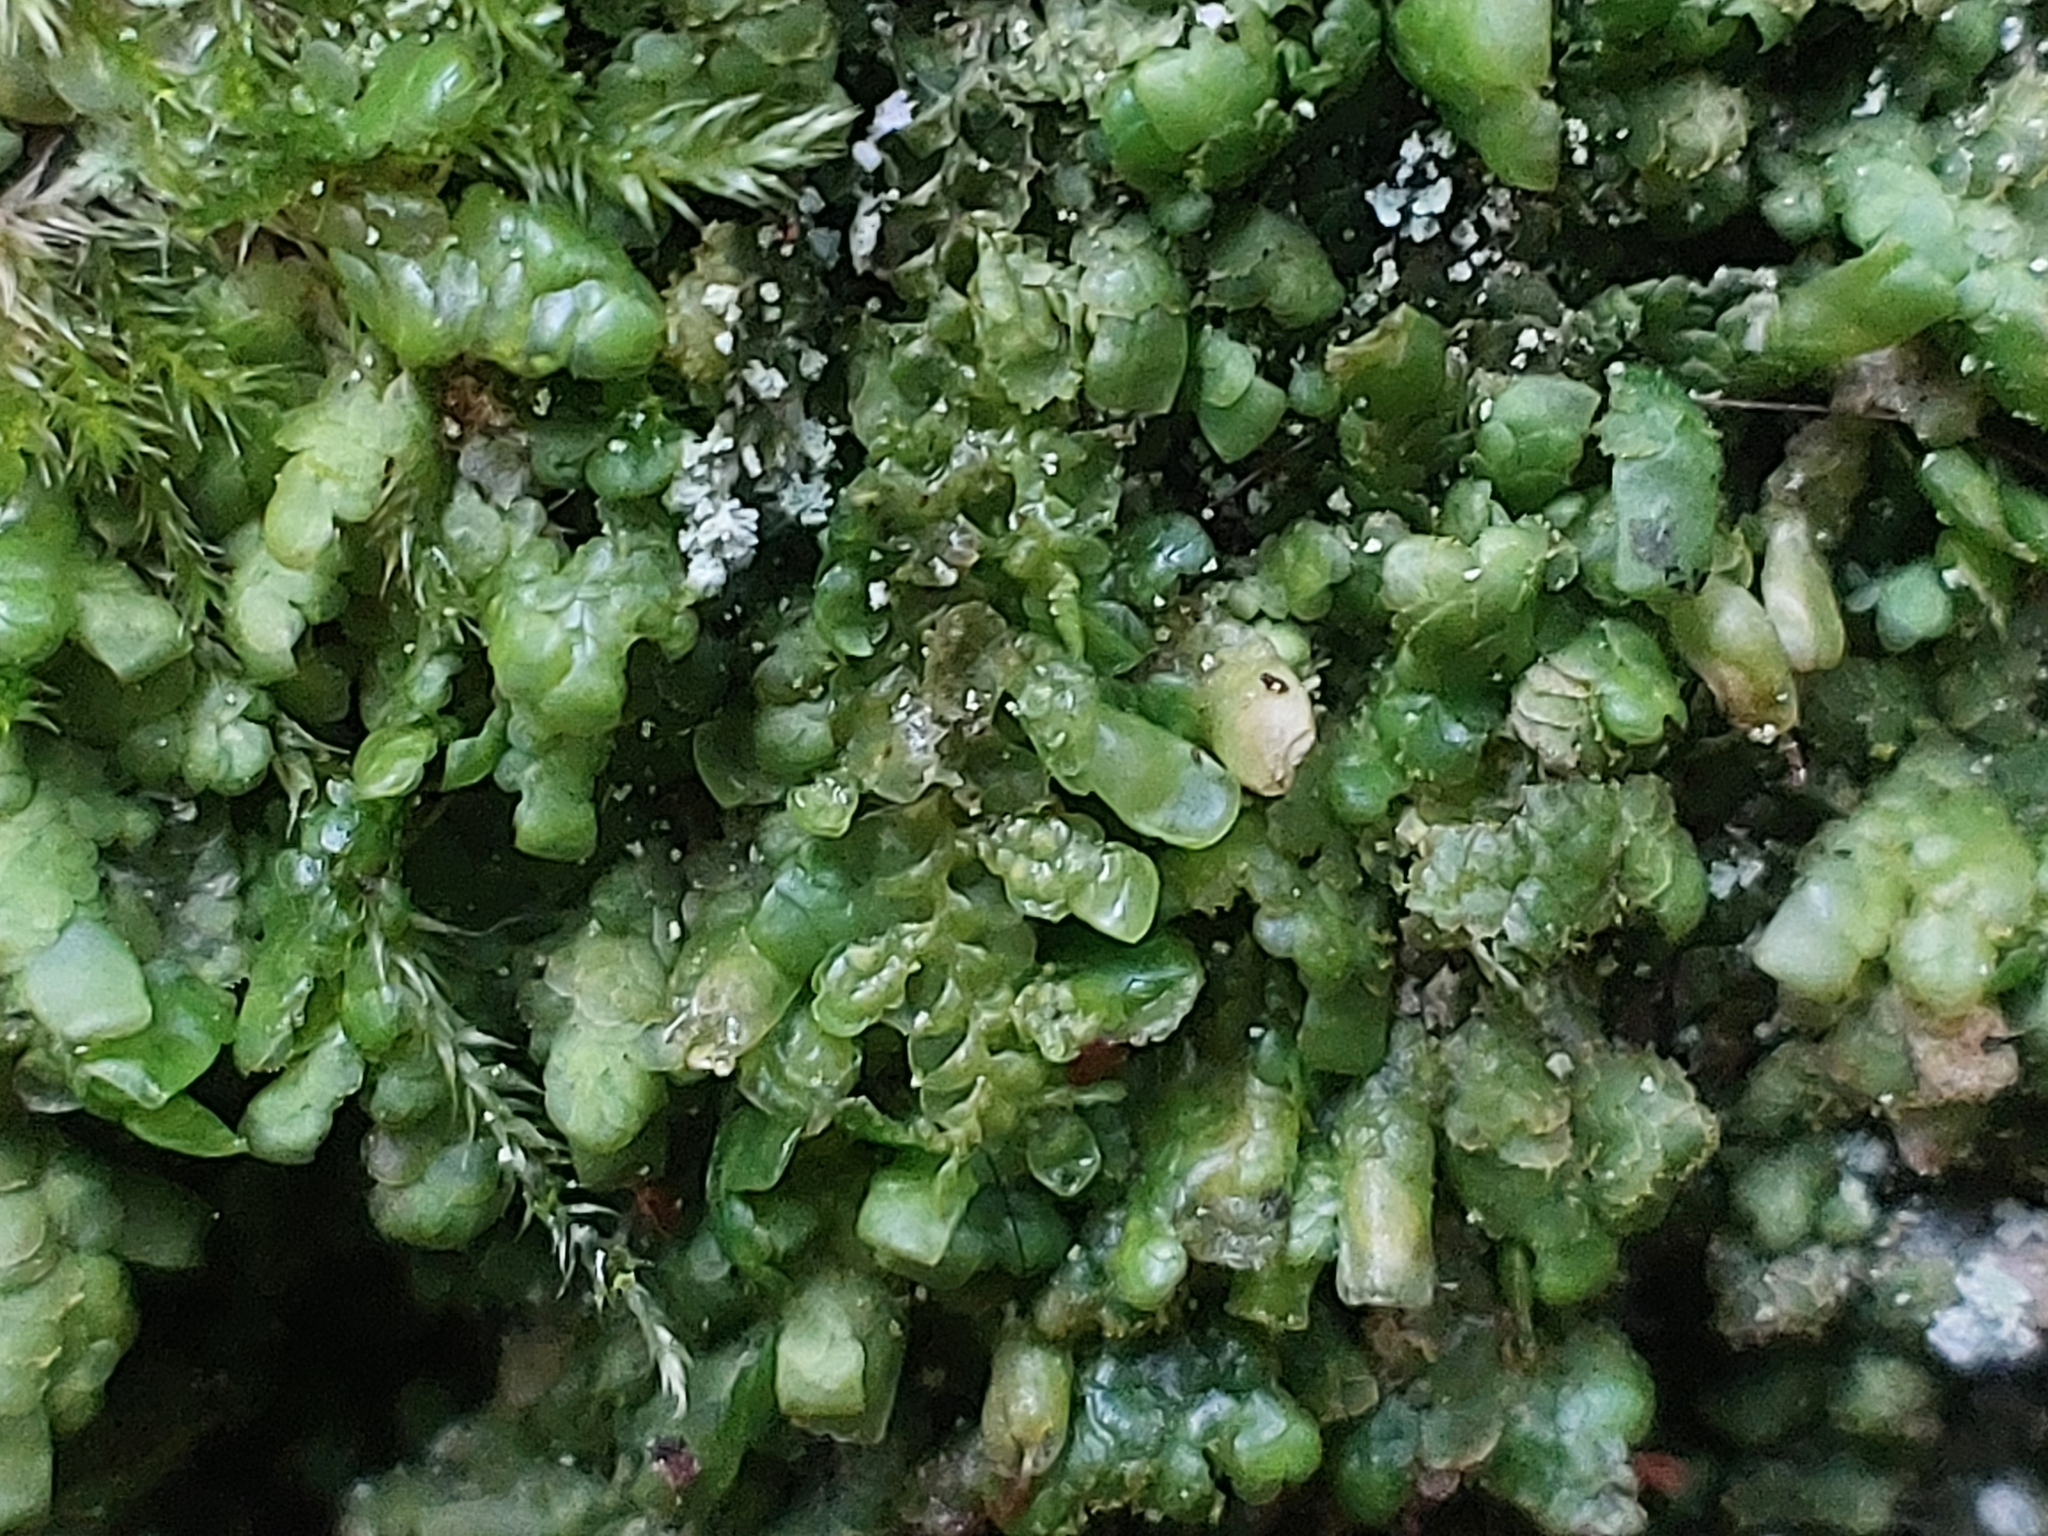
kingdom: Plantae
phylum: Marchantiophyta
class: Jungermanniopsida
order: Porellales
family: Radulaceae
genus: Radula
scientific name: Radula complanata
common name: Flat-leaved scalewort
